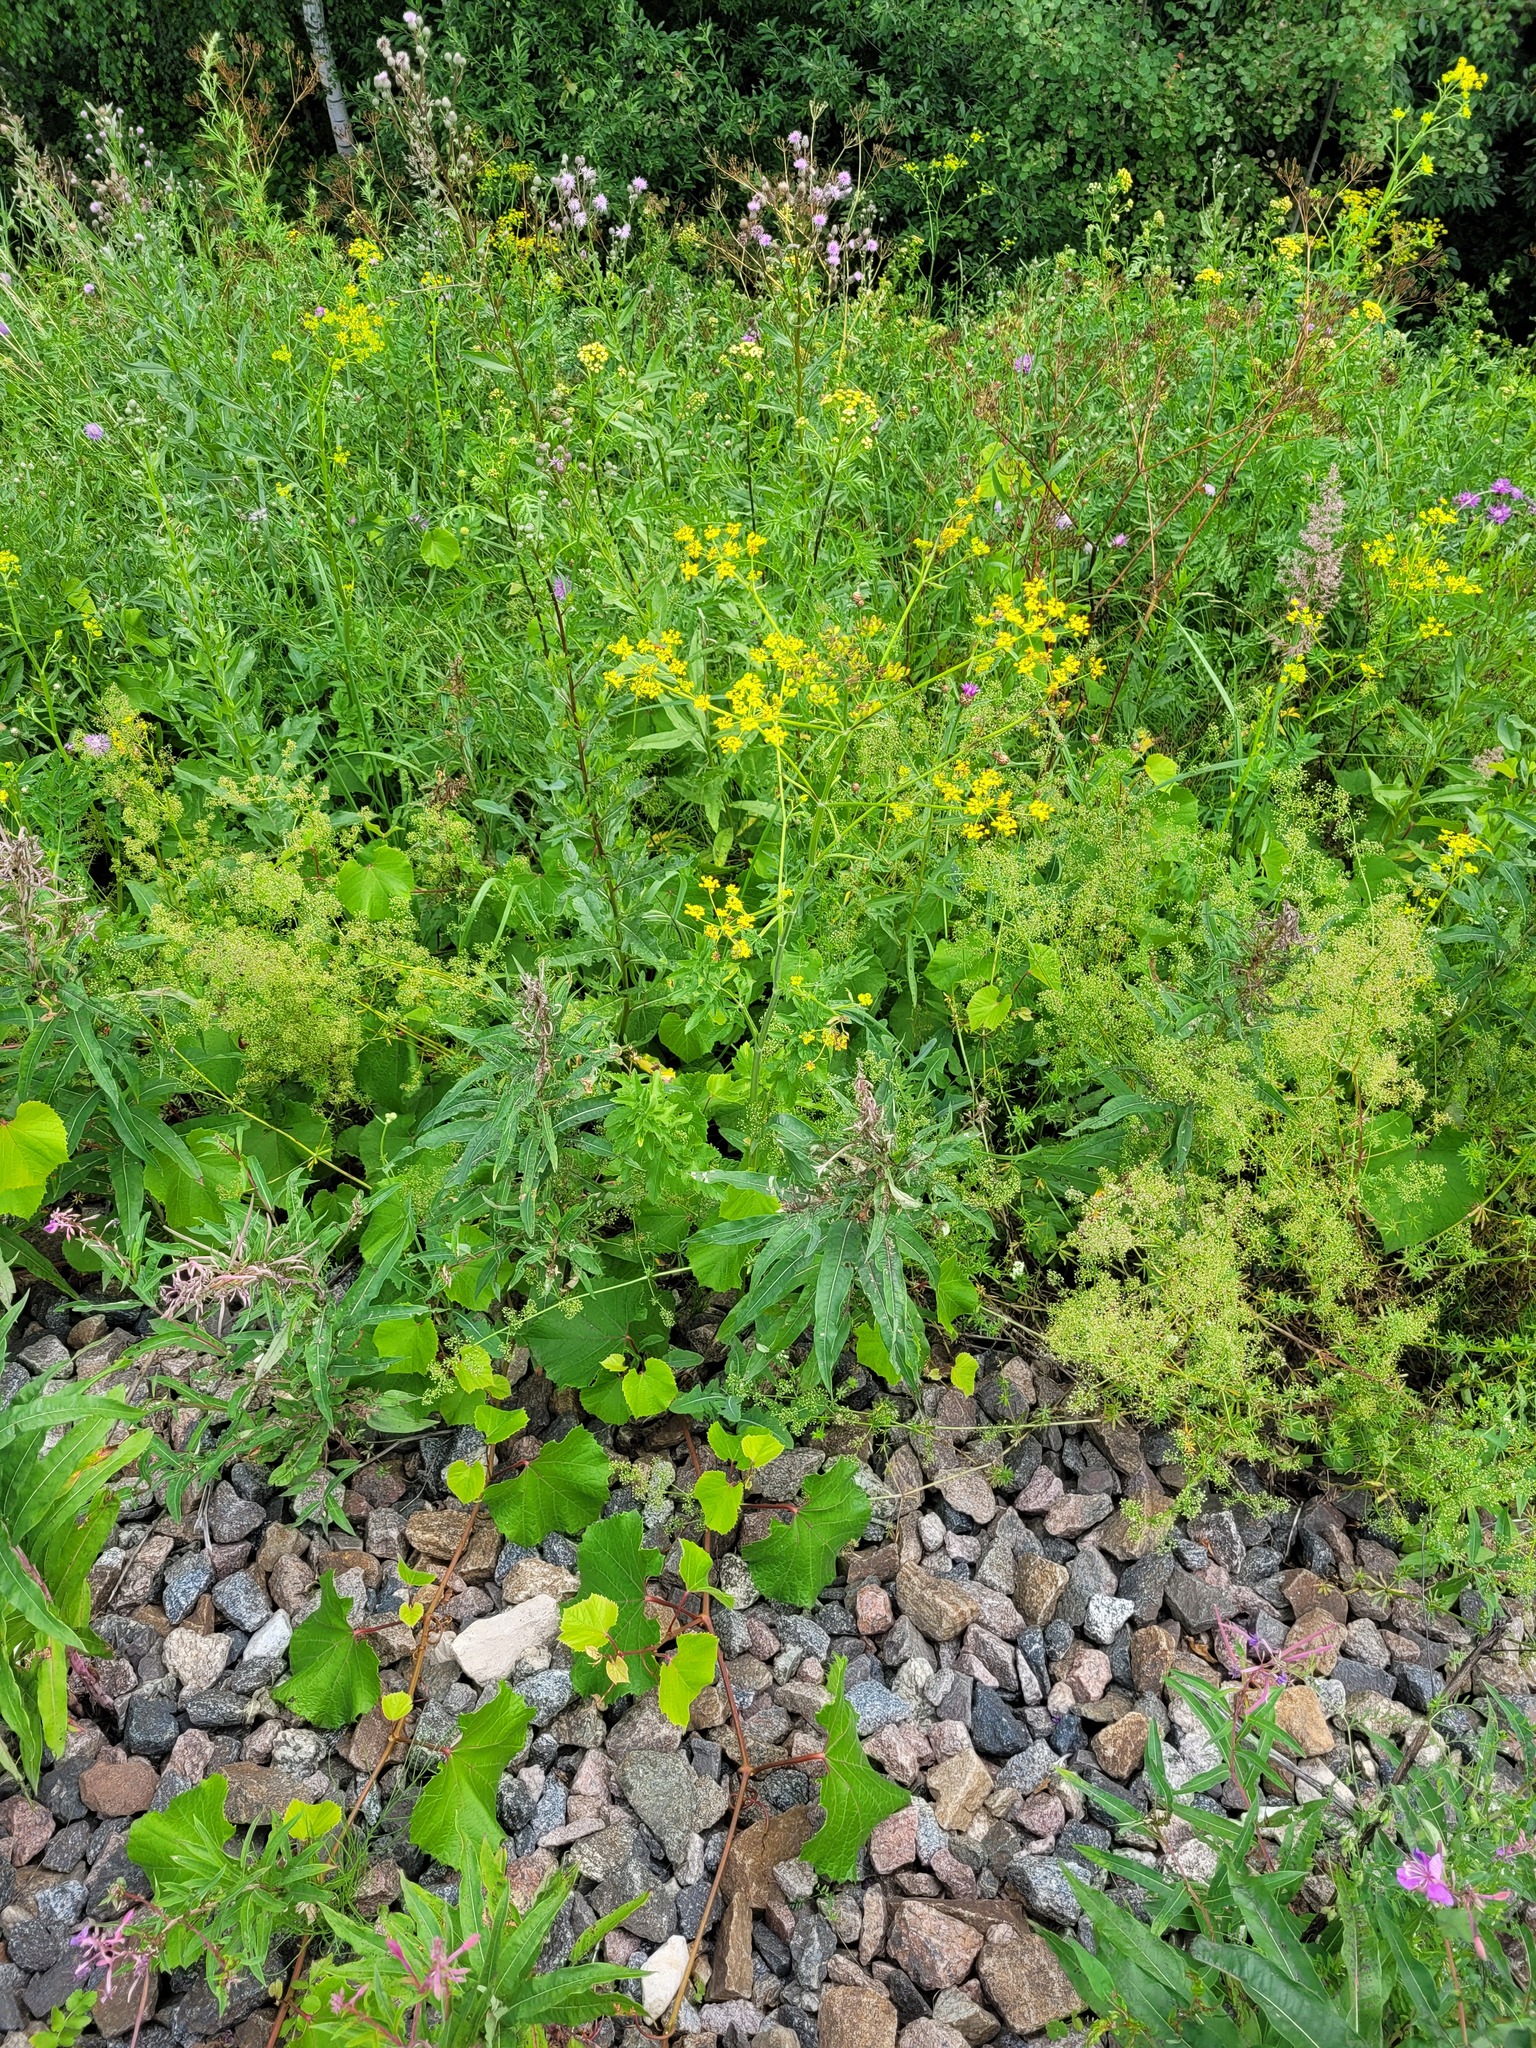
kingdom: Plantae
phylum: Tracheophyta
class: Magnoliopsida
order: Myrtales
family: Onagraceae
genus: Chamaenerion
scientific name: Chamaenerion angustifolium
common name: Fireweed
